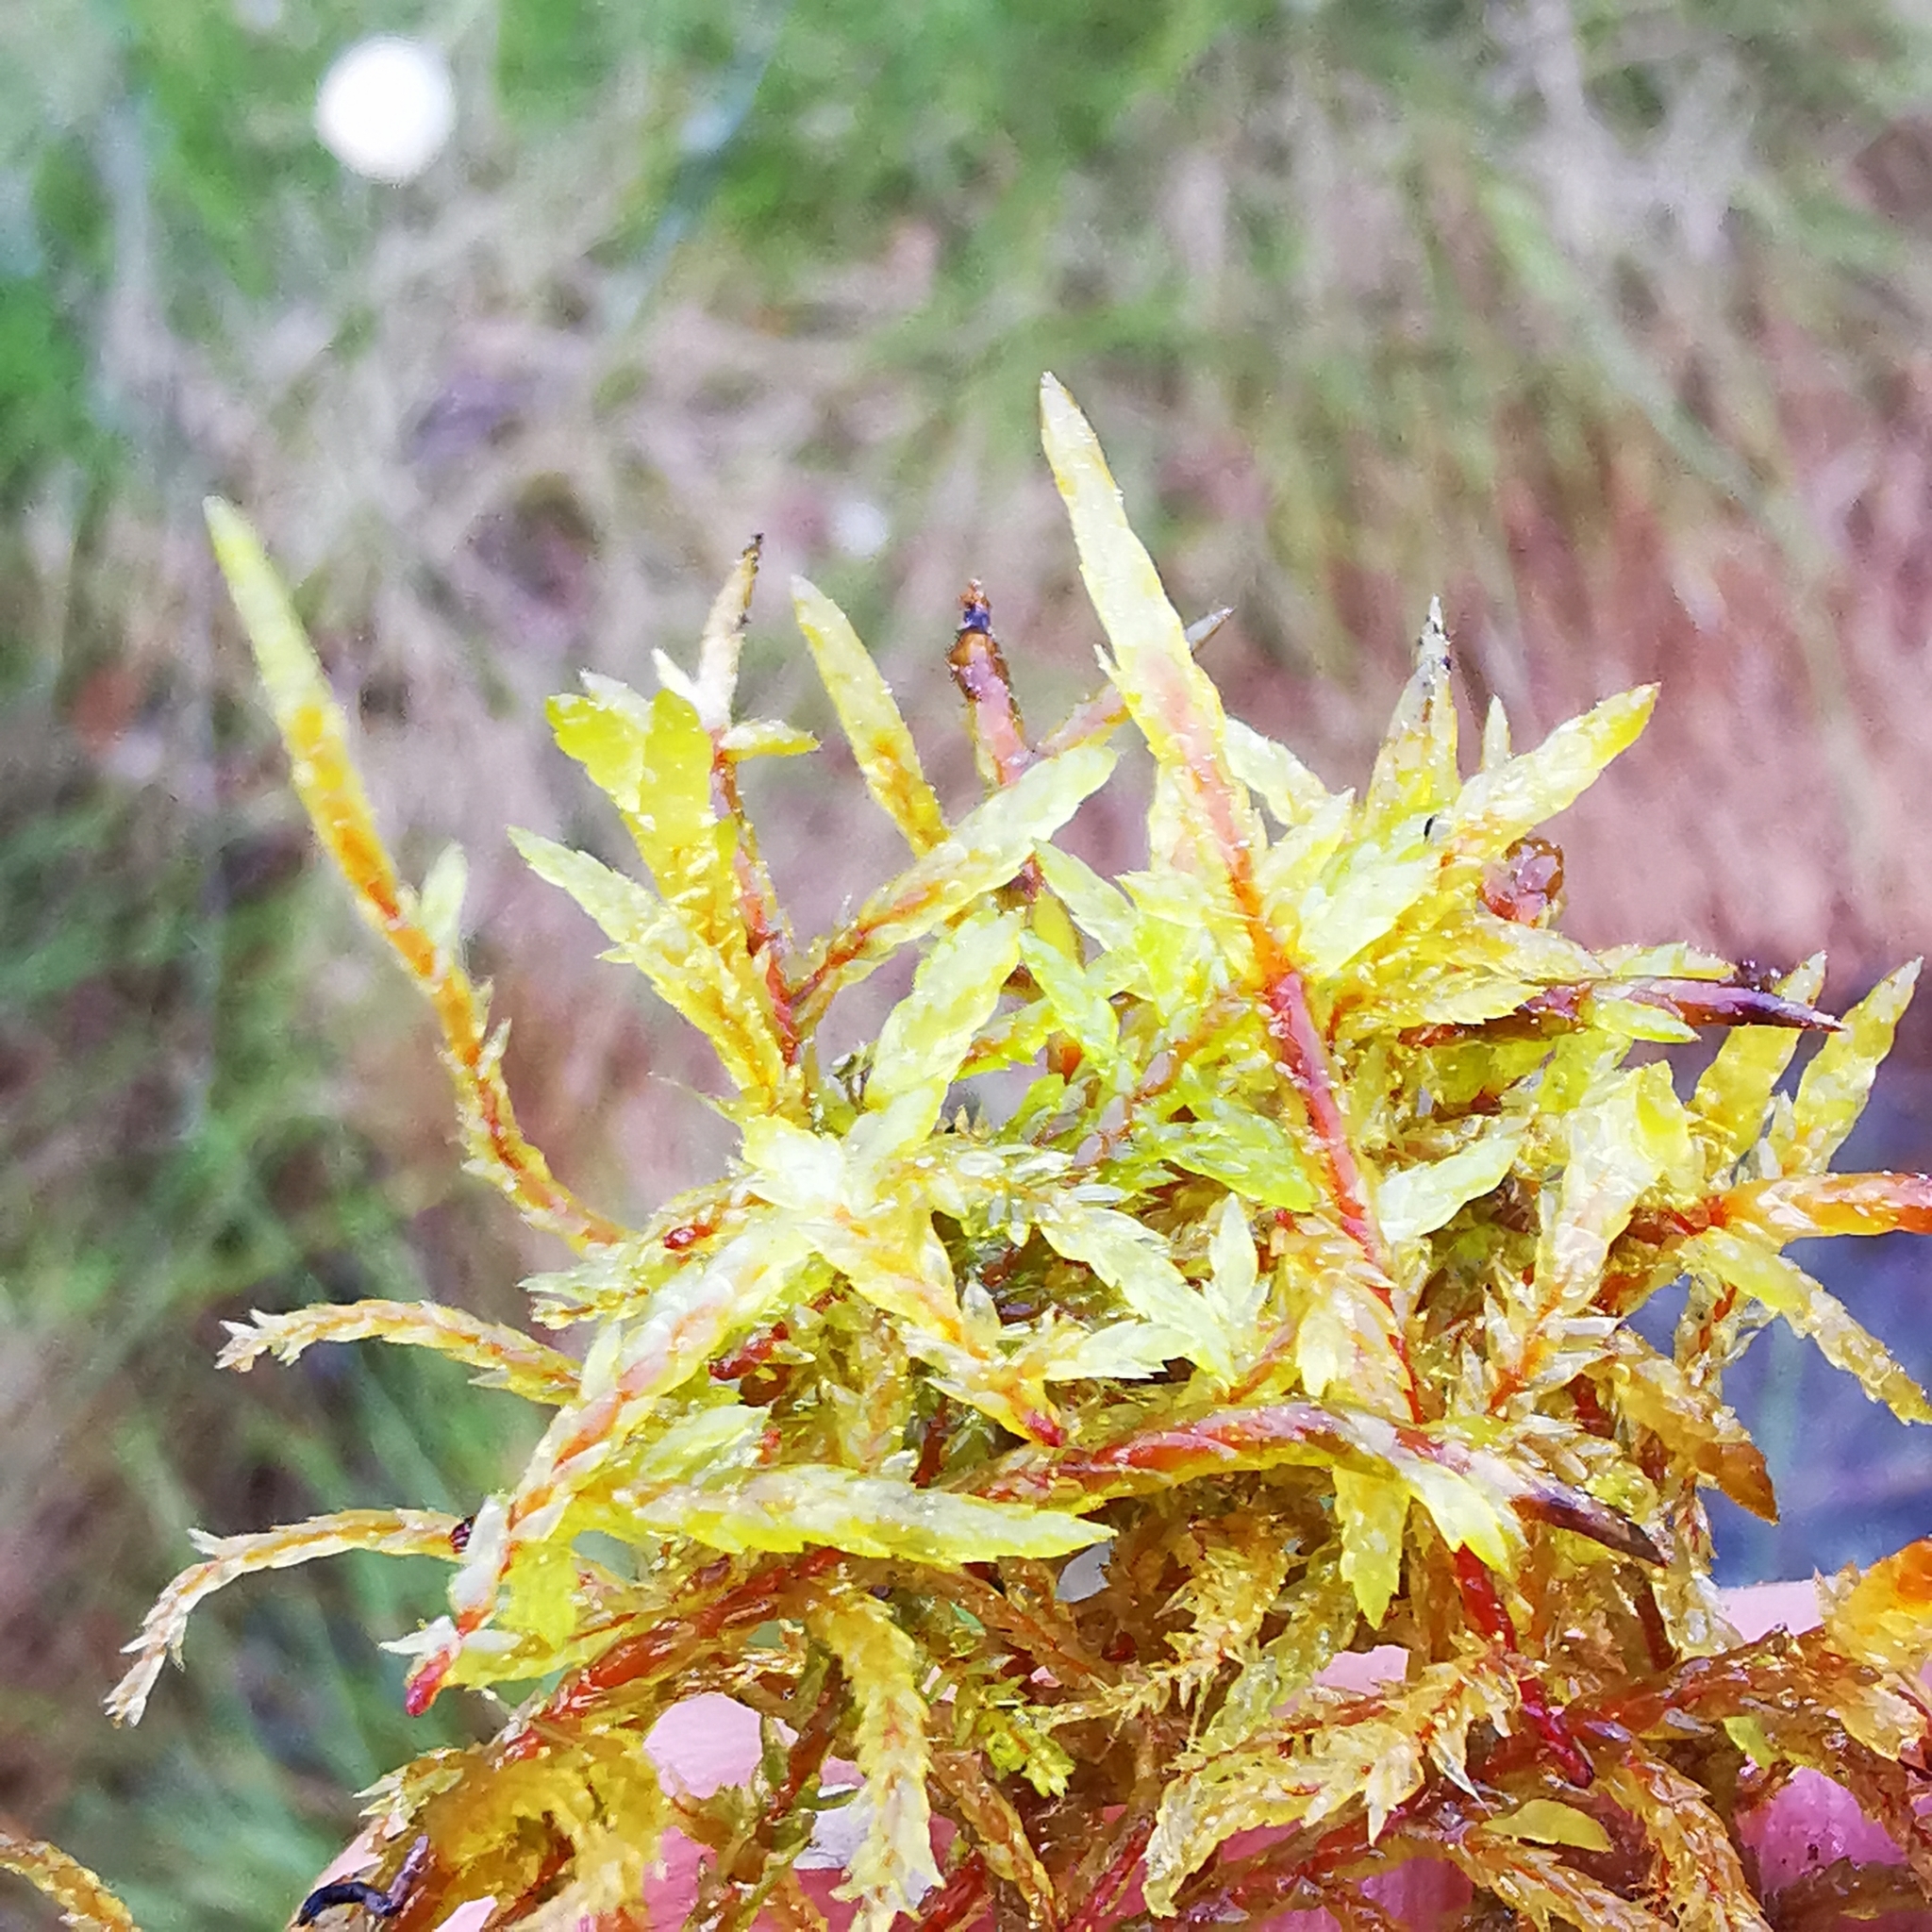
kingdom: Plantae
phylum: Bryophyta
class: Bryopsida
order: Hypnales
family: Hylocomiaceae
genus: Pleurozium
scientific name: Pleurozium schreberi
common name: Red-stemmed feather moss
